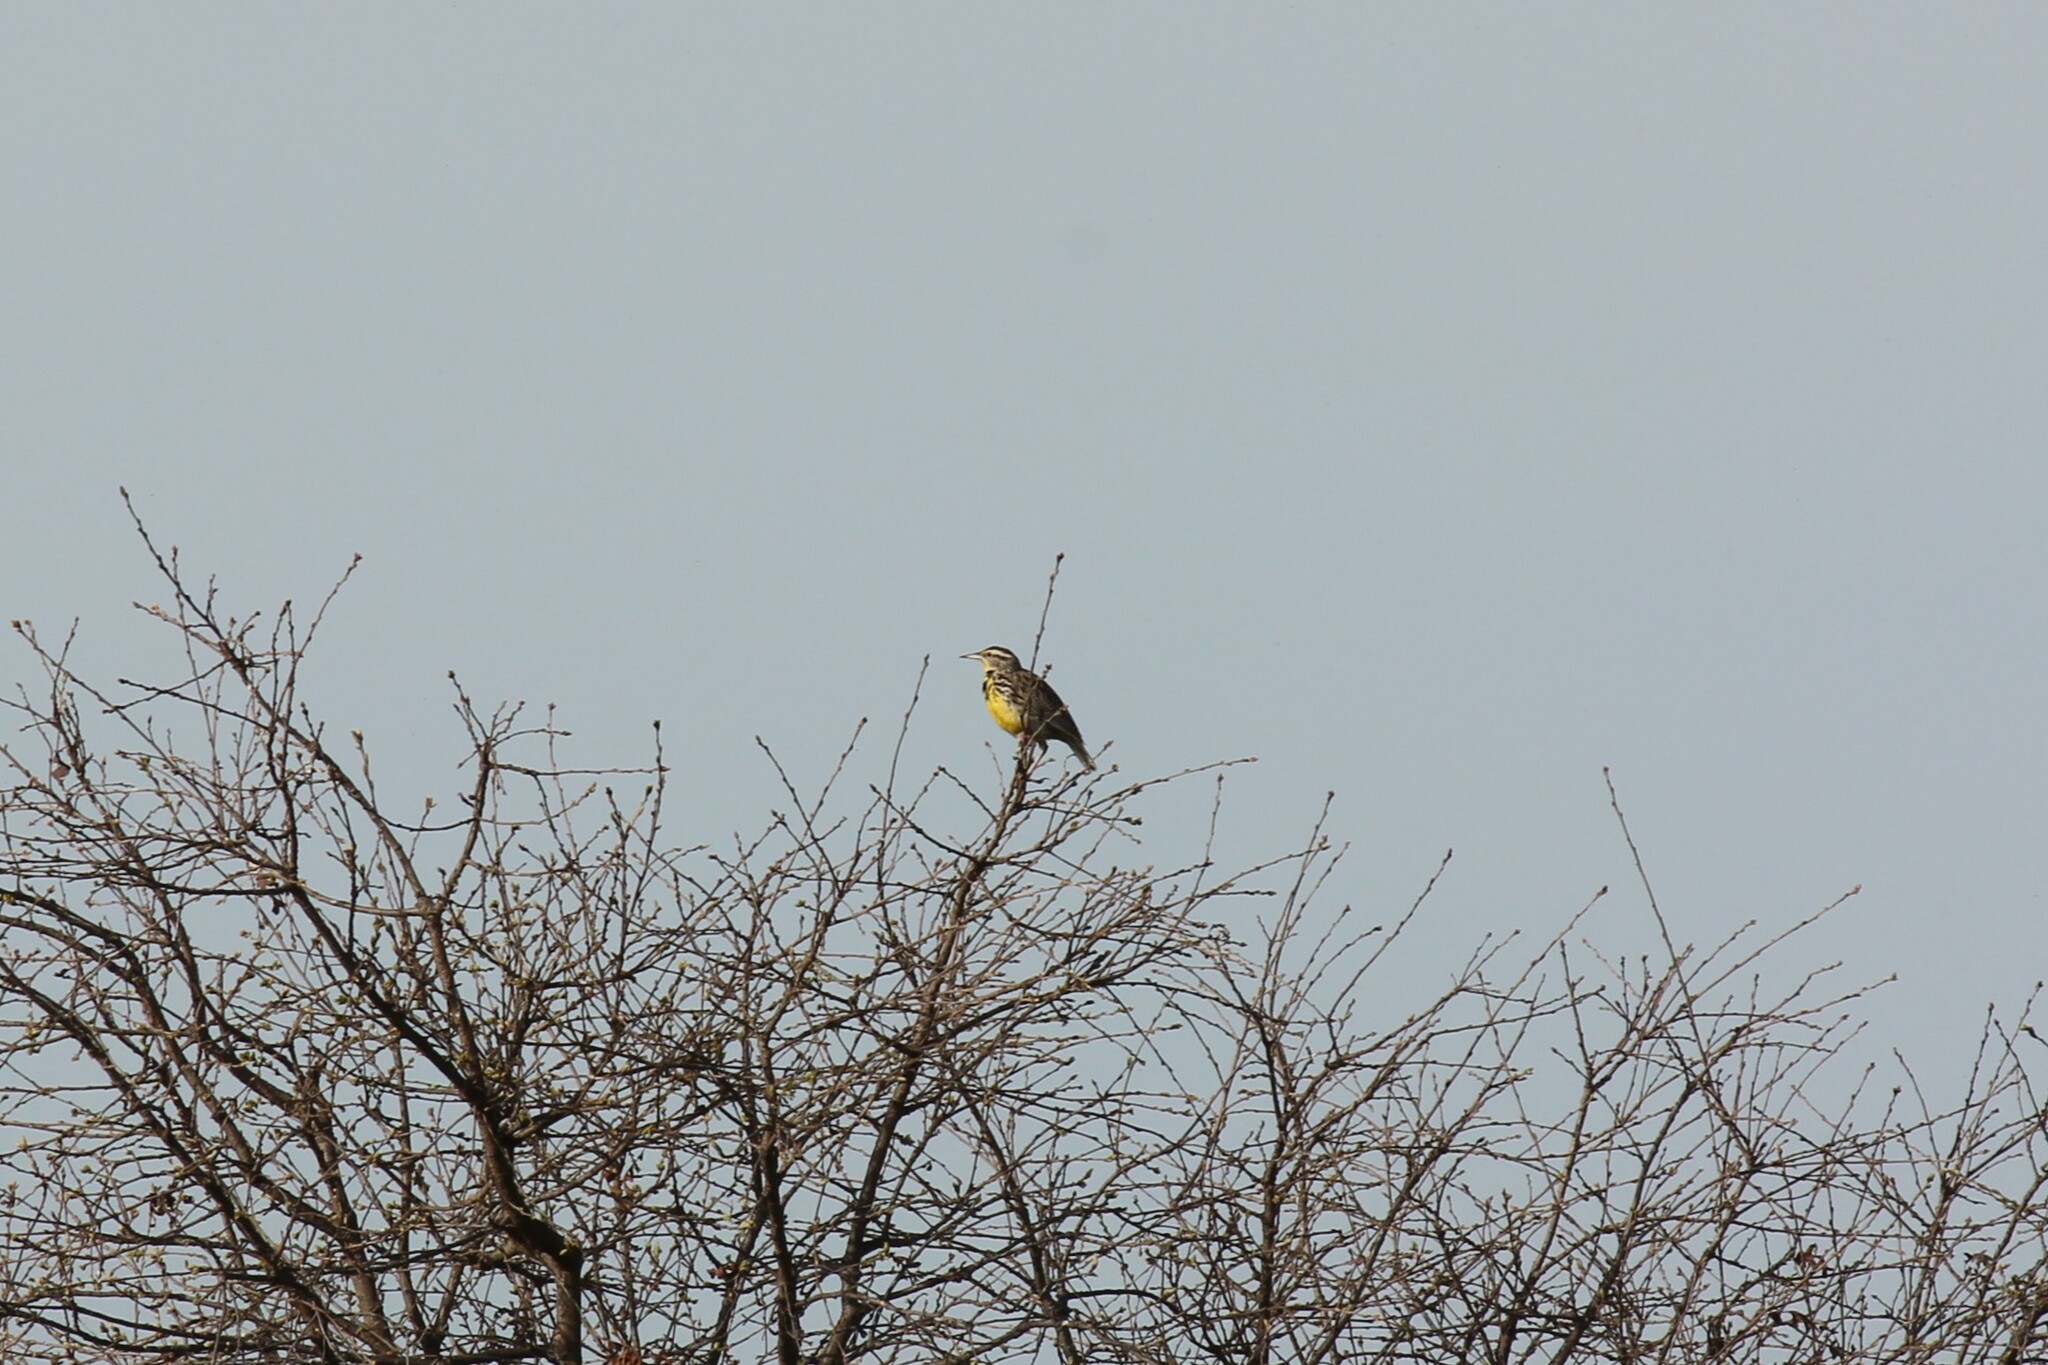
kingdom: Animalia
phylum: Chordata
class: Aves
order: Passeriformes
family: Icteridae
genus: Sturnella
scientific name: Sturnella neglecta
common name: Western meadowlark
